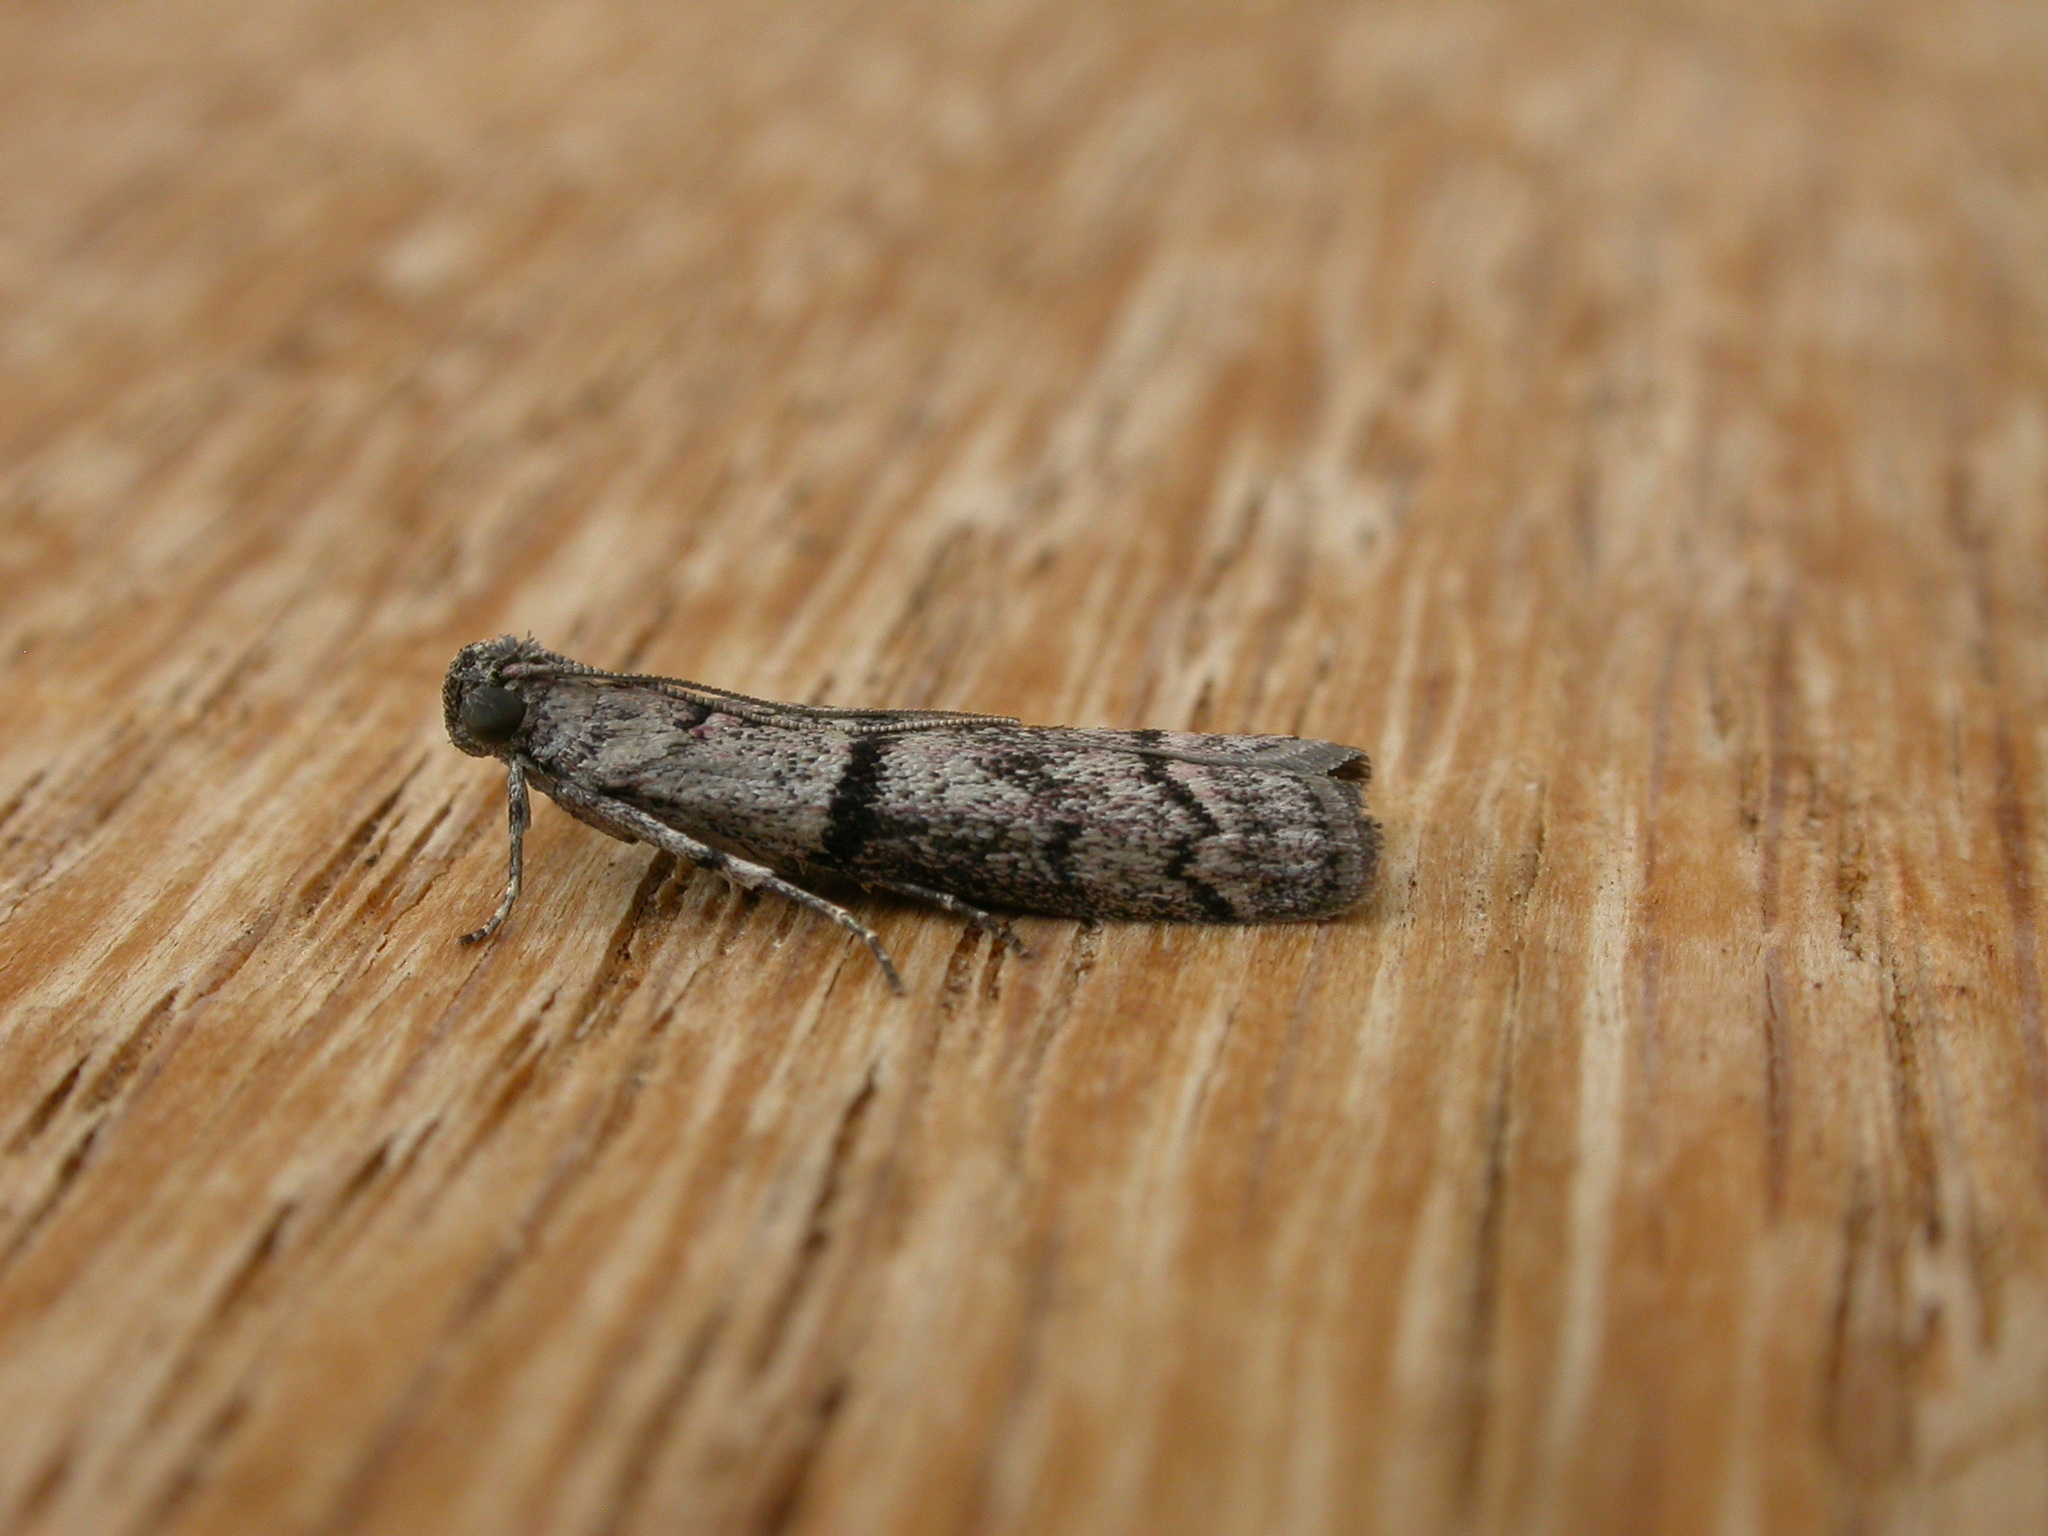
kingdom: Animalia
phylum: Arthropoda
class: Insecta
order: Lepidoptera
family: Pyralidae
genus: Cryptoblabes
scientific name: Cryptoblabes euraphella
